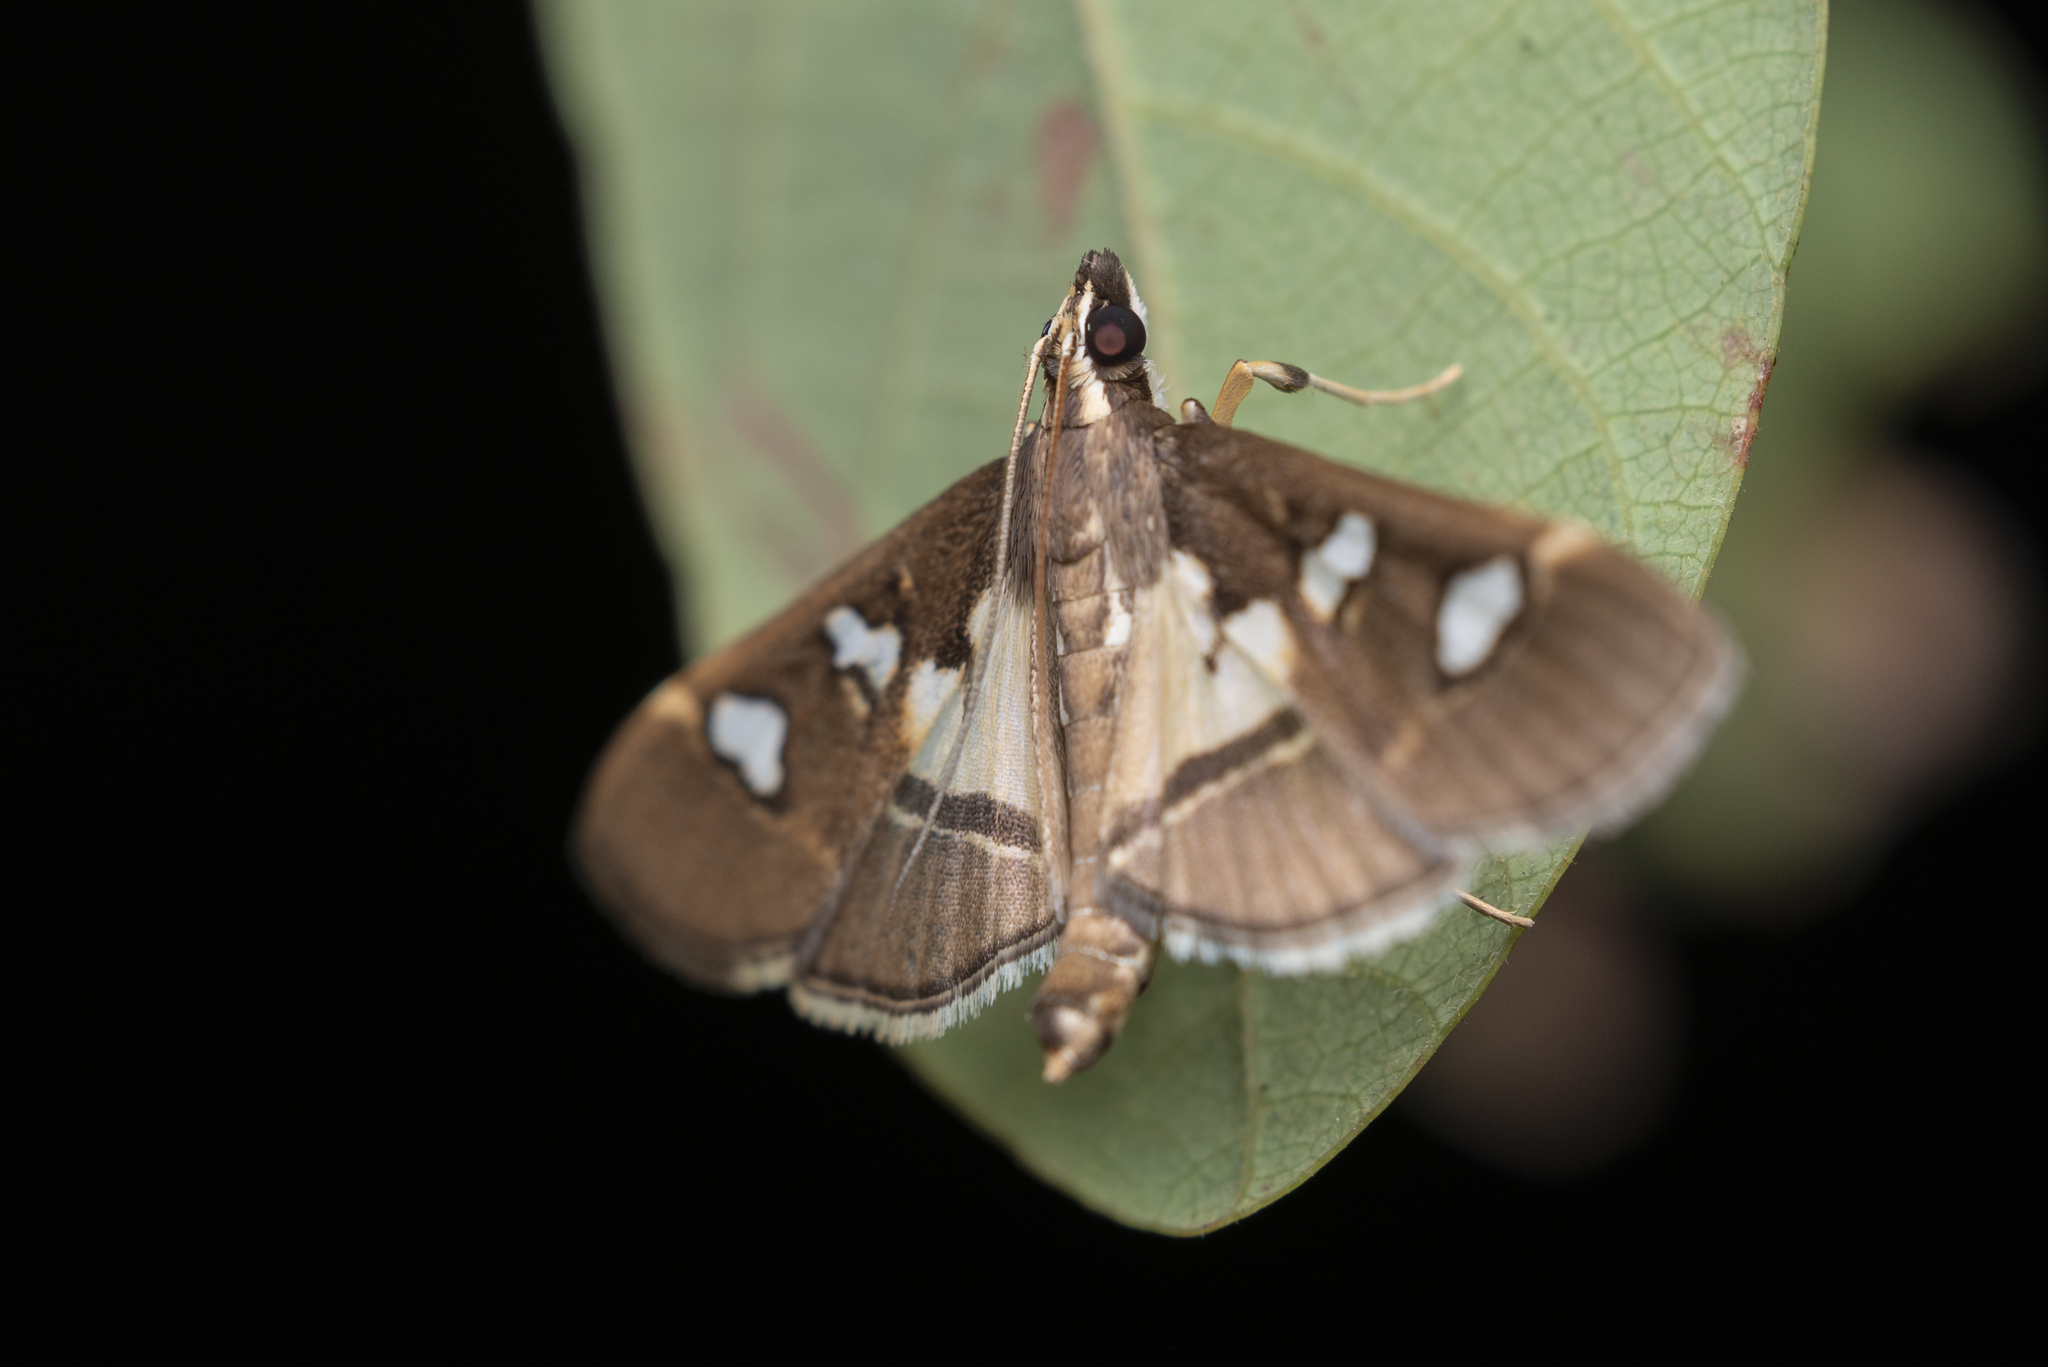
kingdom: Animalia
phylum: Arthropoda
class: Insecta
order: Lepidoptera
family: Crambidae
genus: Glyphodes
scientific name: Glyphodes crithealis
